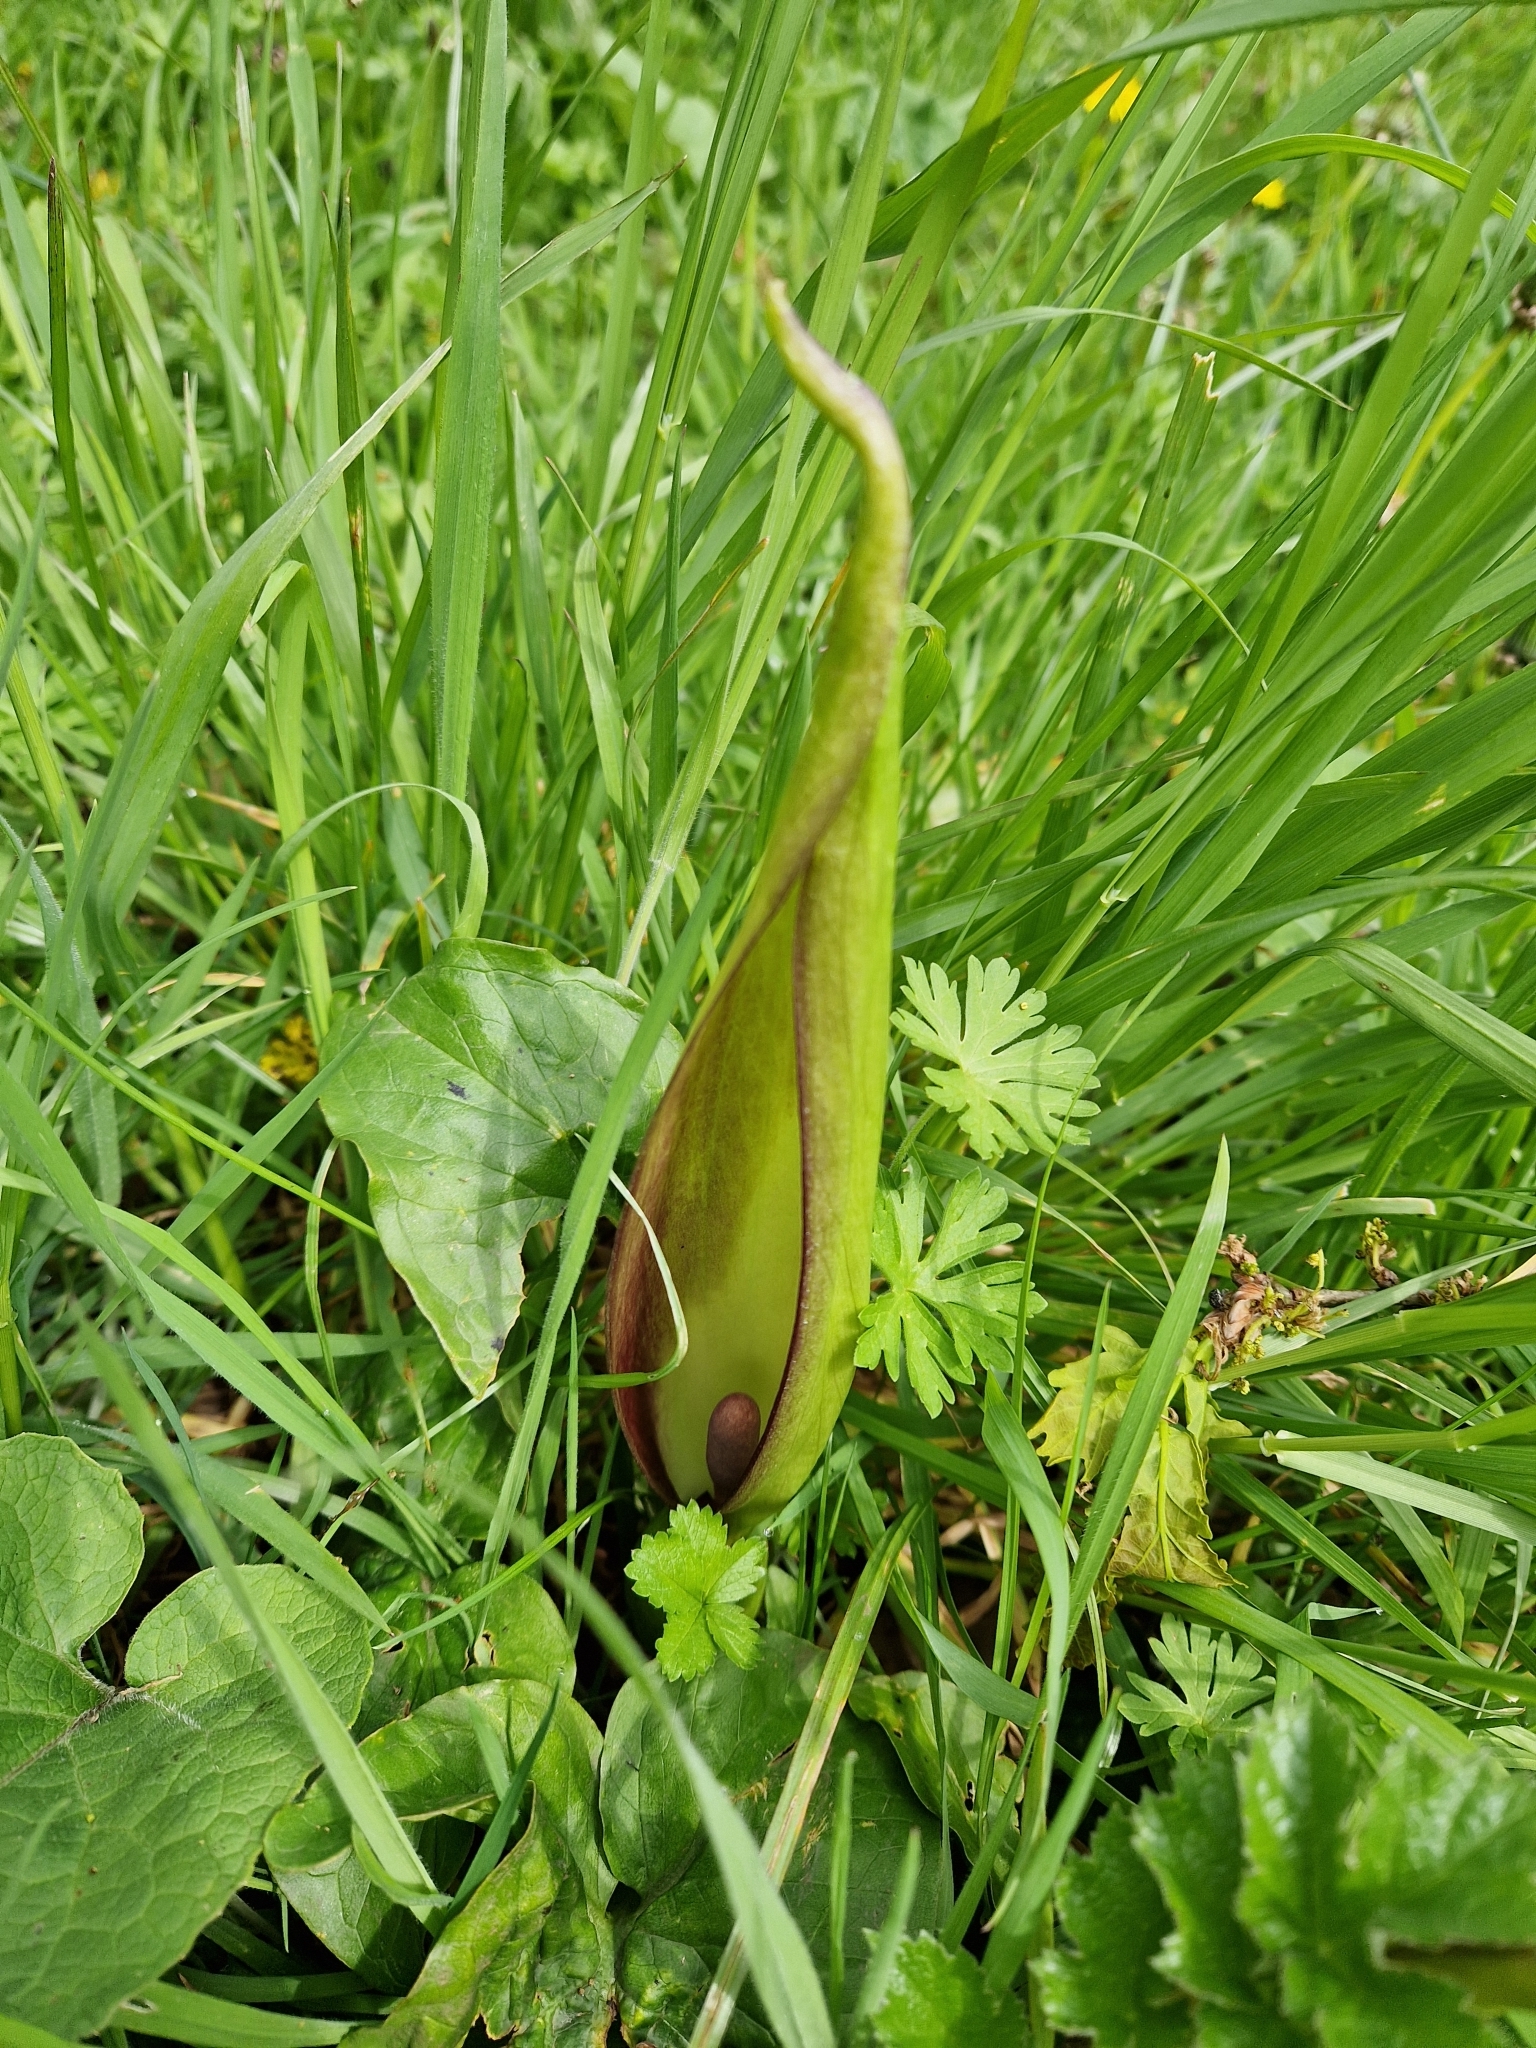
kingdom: Plantae
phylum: Tracheophyta
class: Liliopsida
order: Alismatales
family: Araceae
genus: Arum
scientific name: Arum maculatum
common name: Lords-and-ladies
